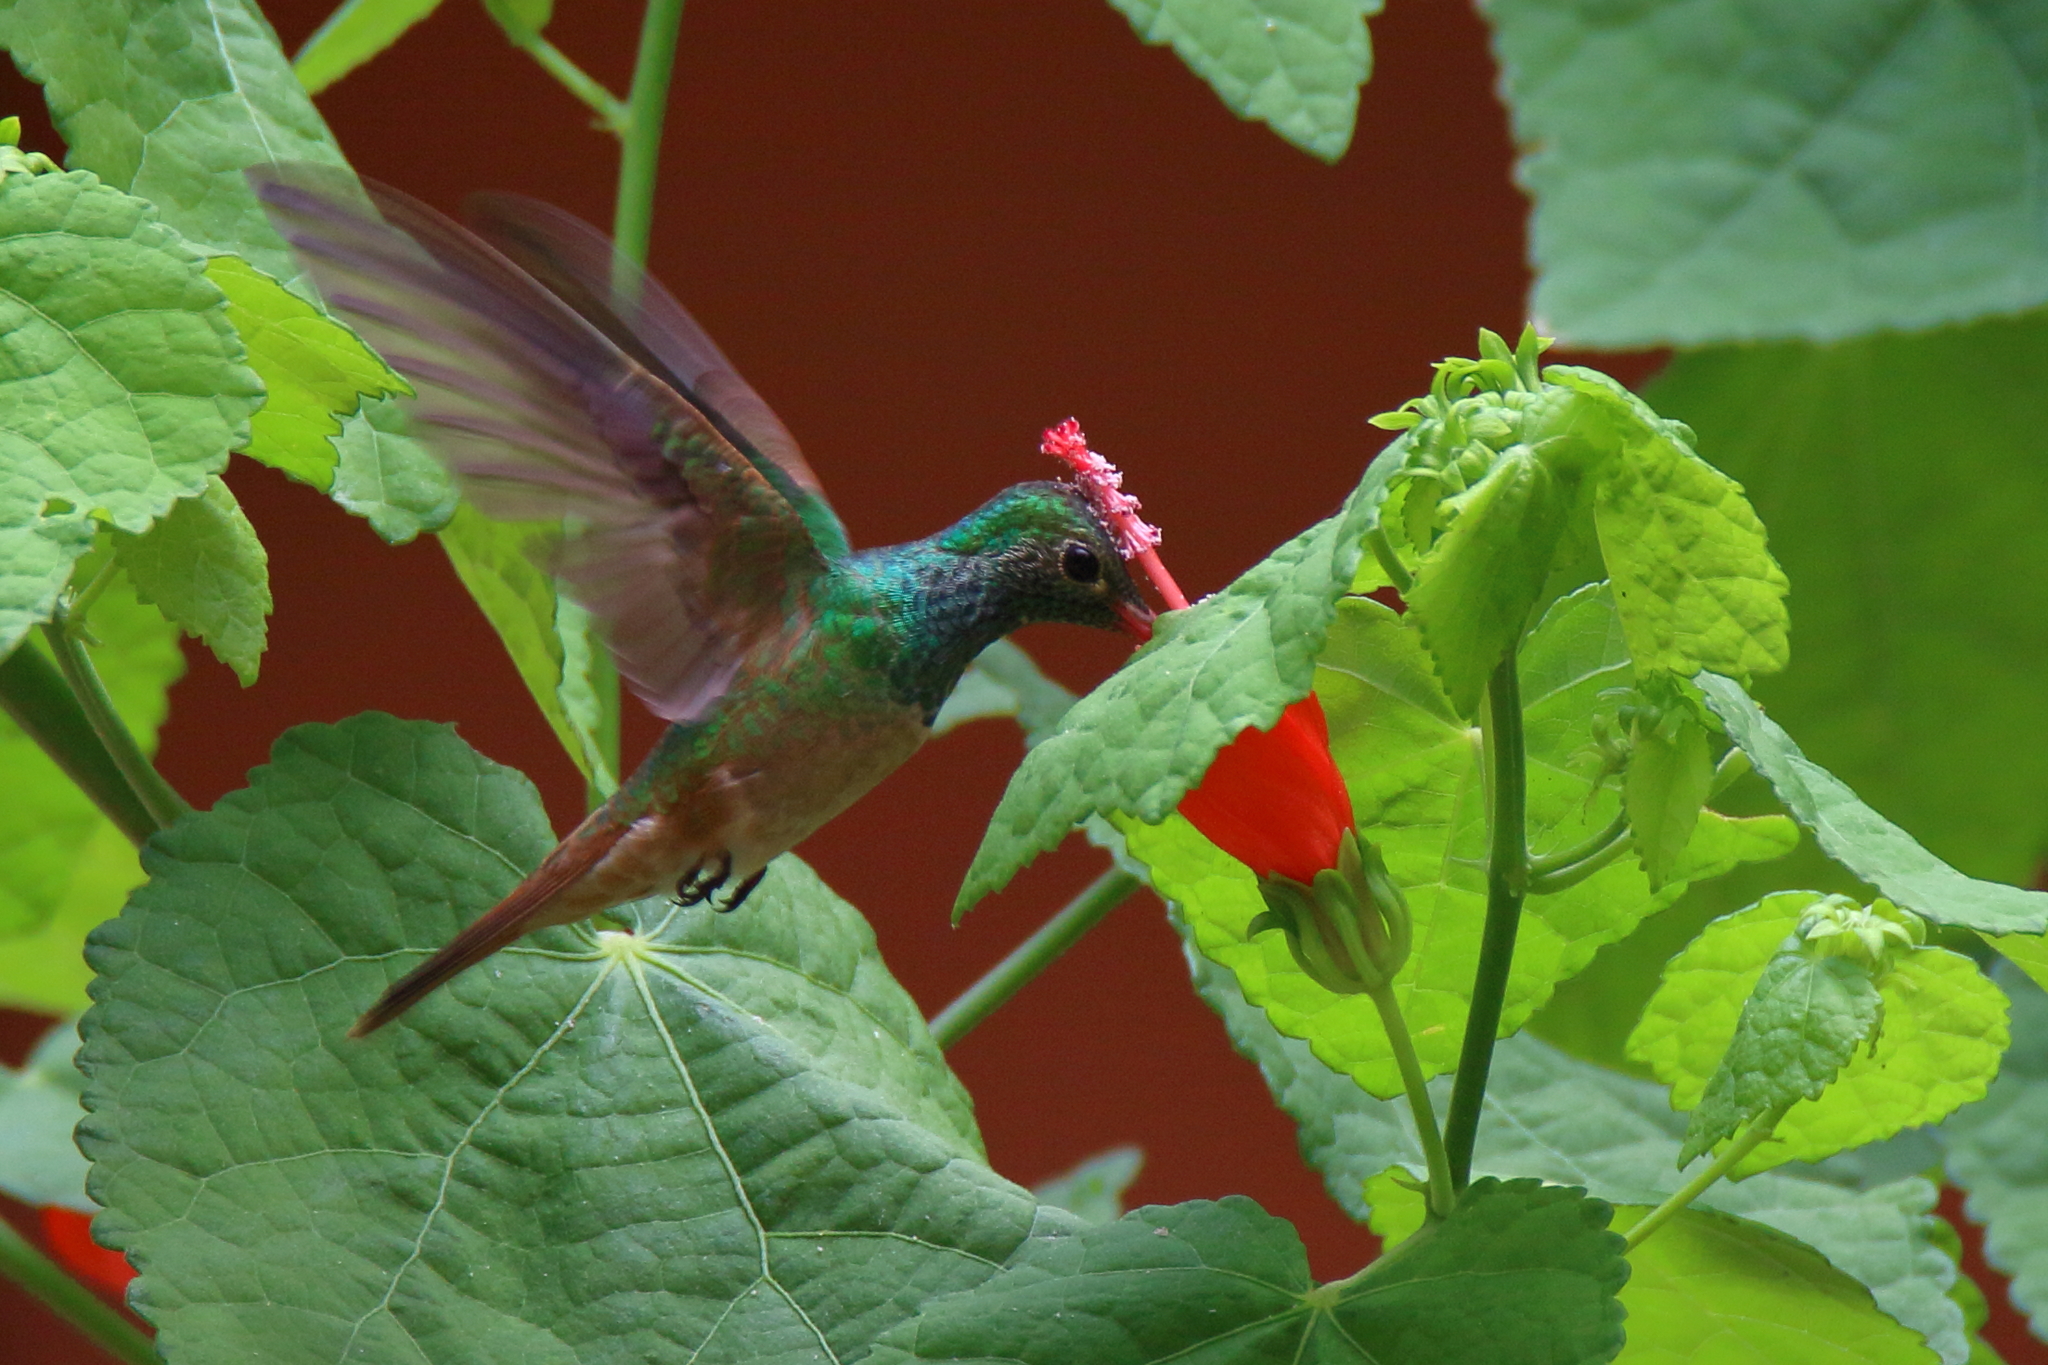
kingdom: Animalia
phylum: Chordata
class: Aves
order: Apodiformes
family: Trochilidae
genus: Amazilia
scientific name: Amazilia yucatanensis
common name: Buff-bellied hummingbird
